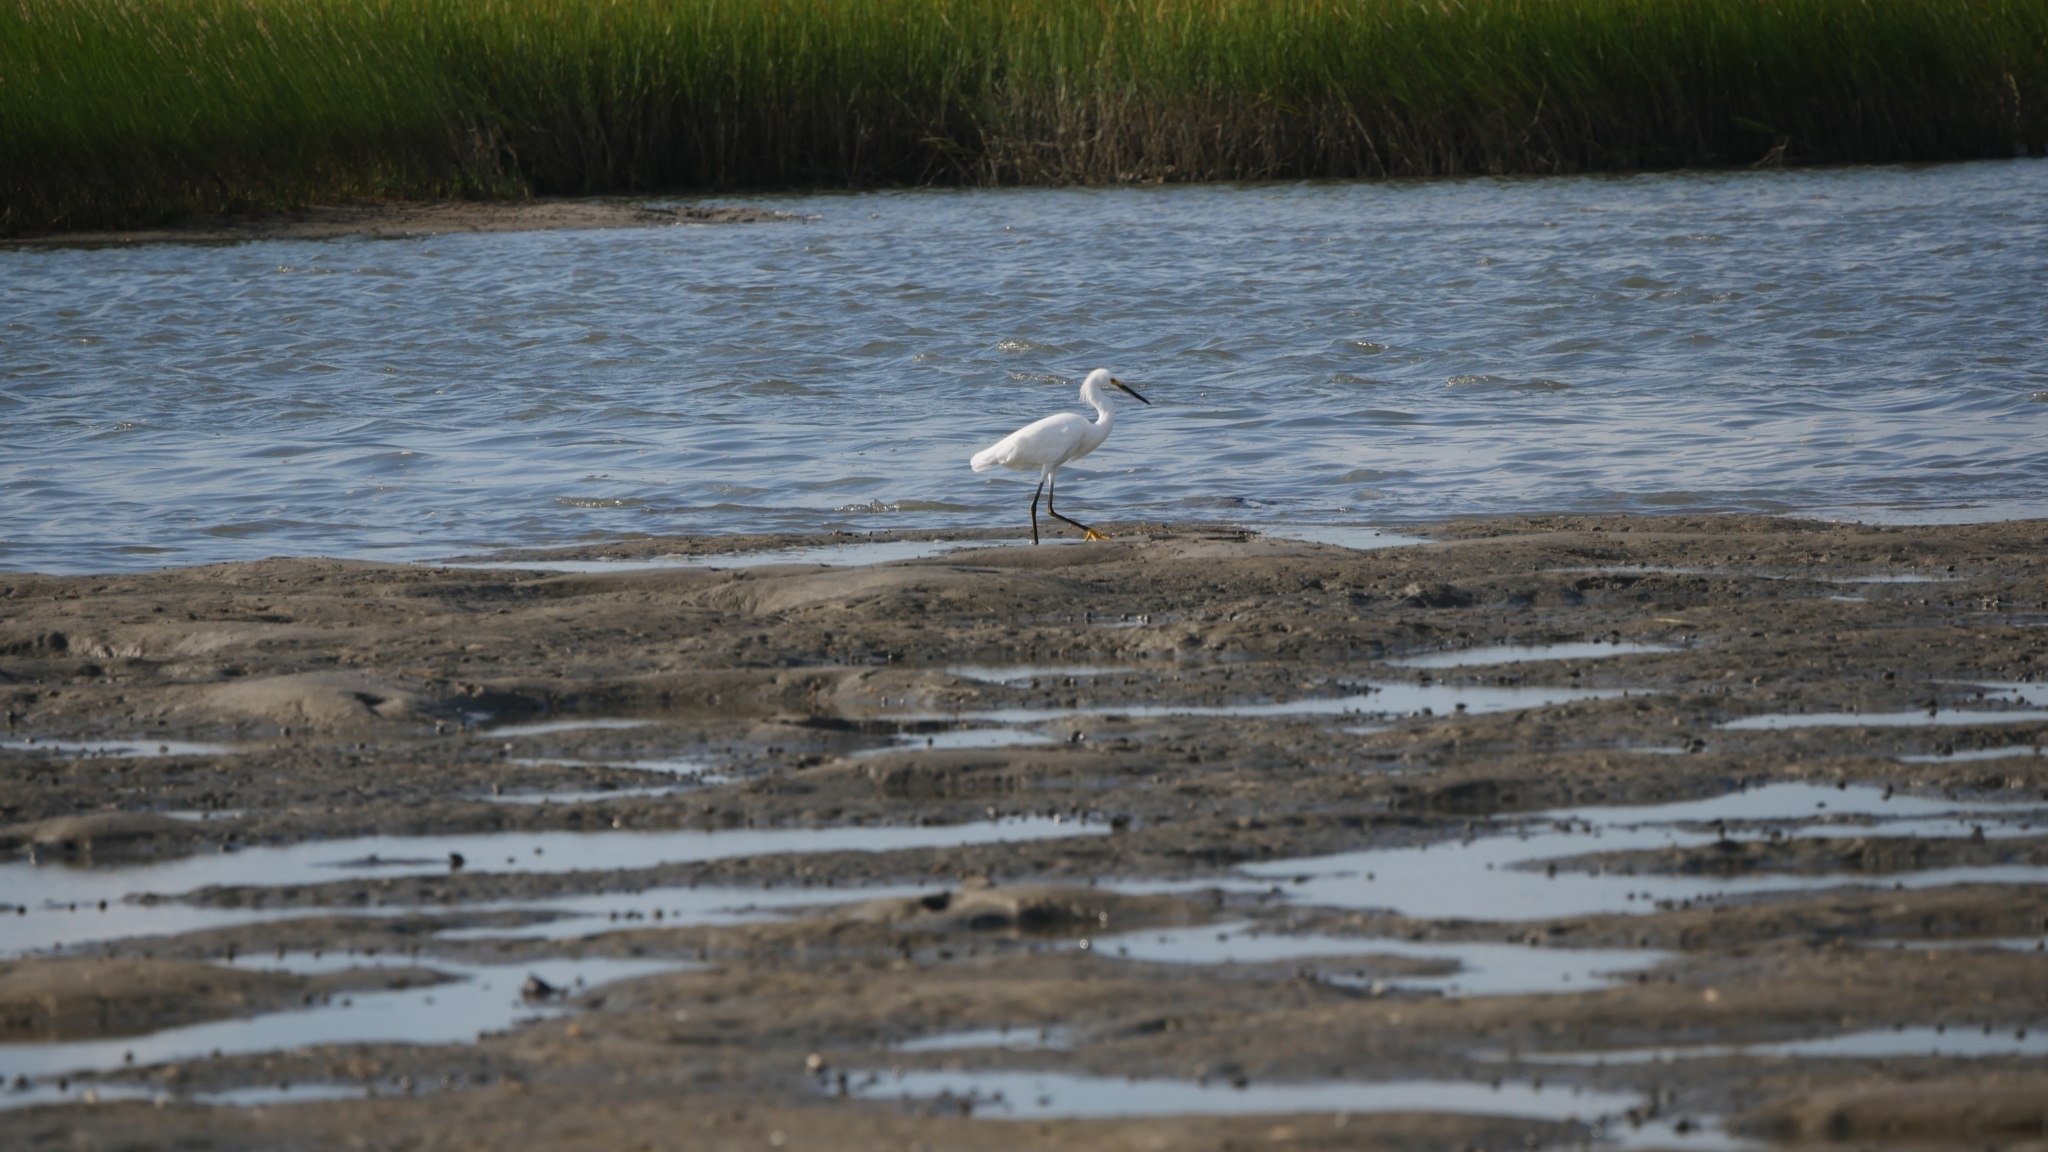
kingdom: Animalia
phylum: Chordata
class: Aves
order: Pelecaniformes
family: Ardeidae
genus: Egretta
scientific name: Egretta thula
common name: Snowy egret
